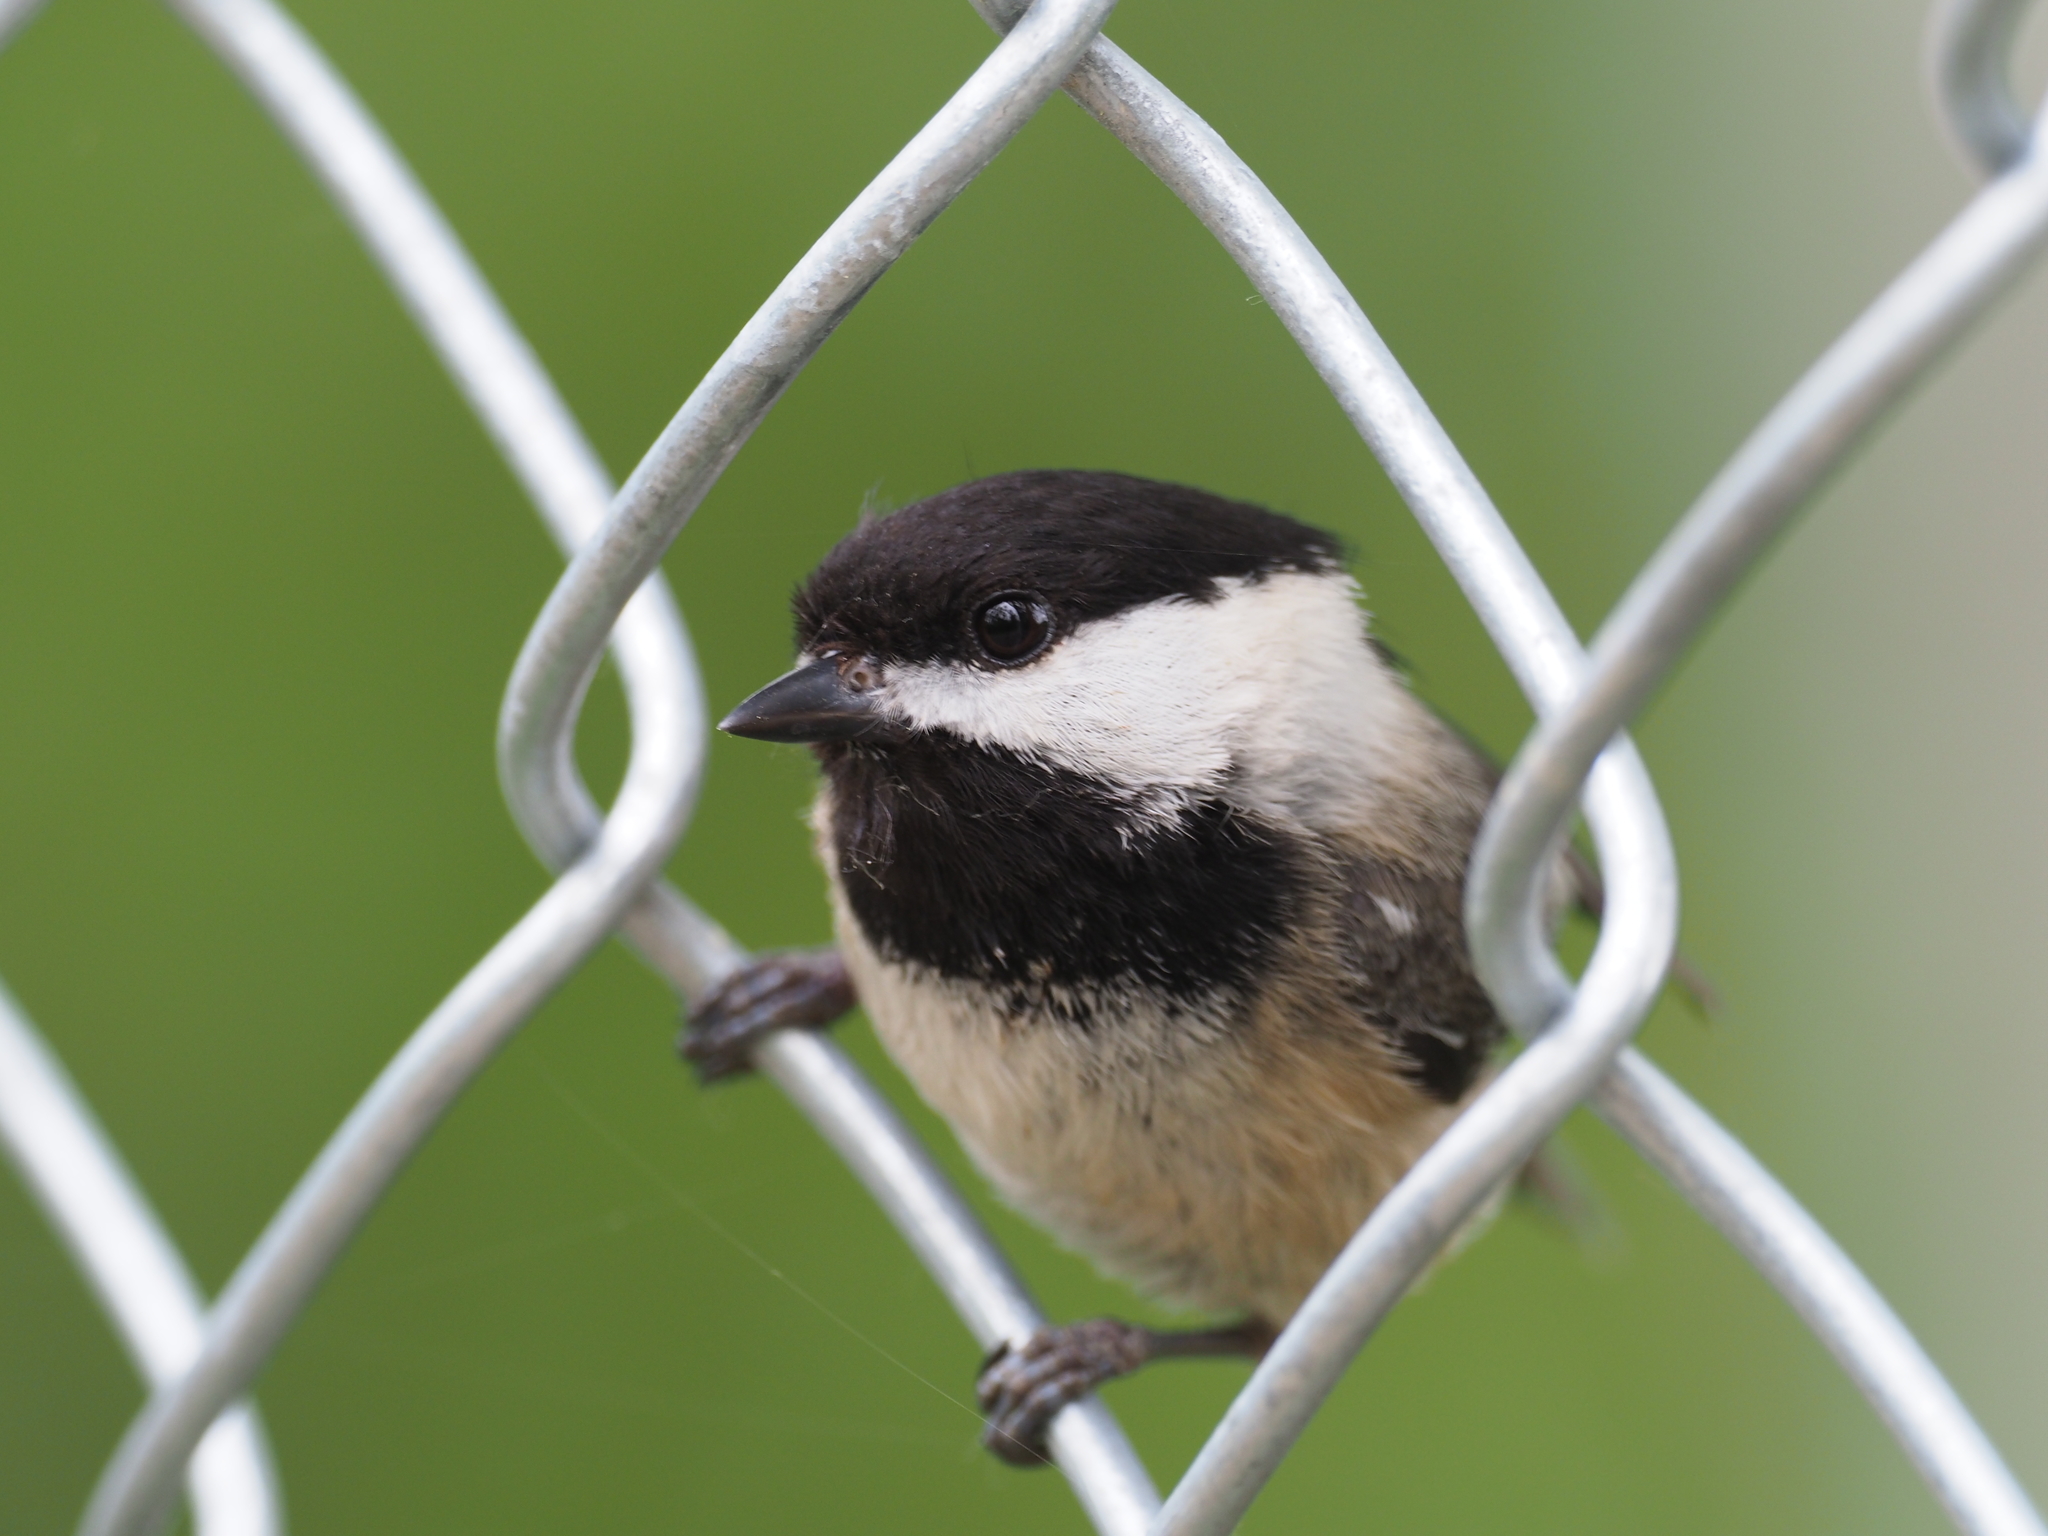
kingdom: Animalia
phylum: Chordata
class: Aves
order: Passeriformes
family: Paridae
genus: Poecile
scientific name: Poecile atricapillus
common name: Black-capped chickadee
